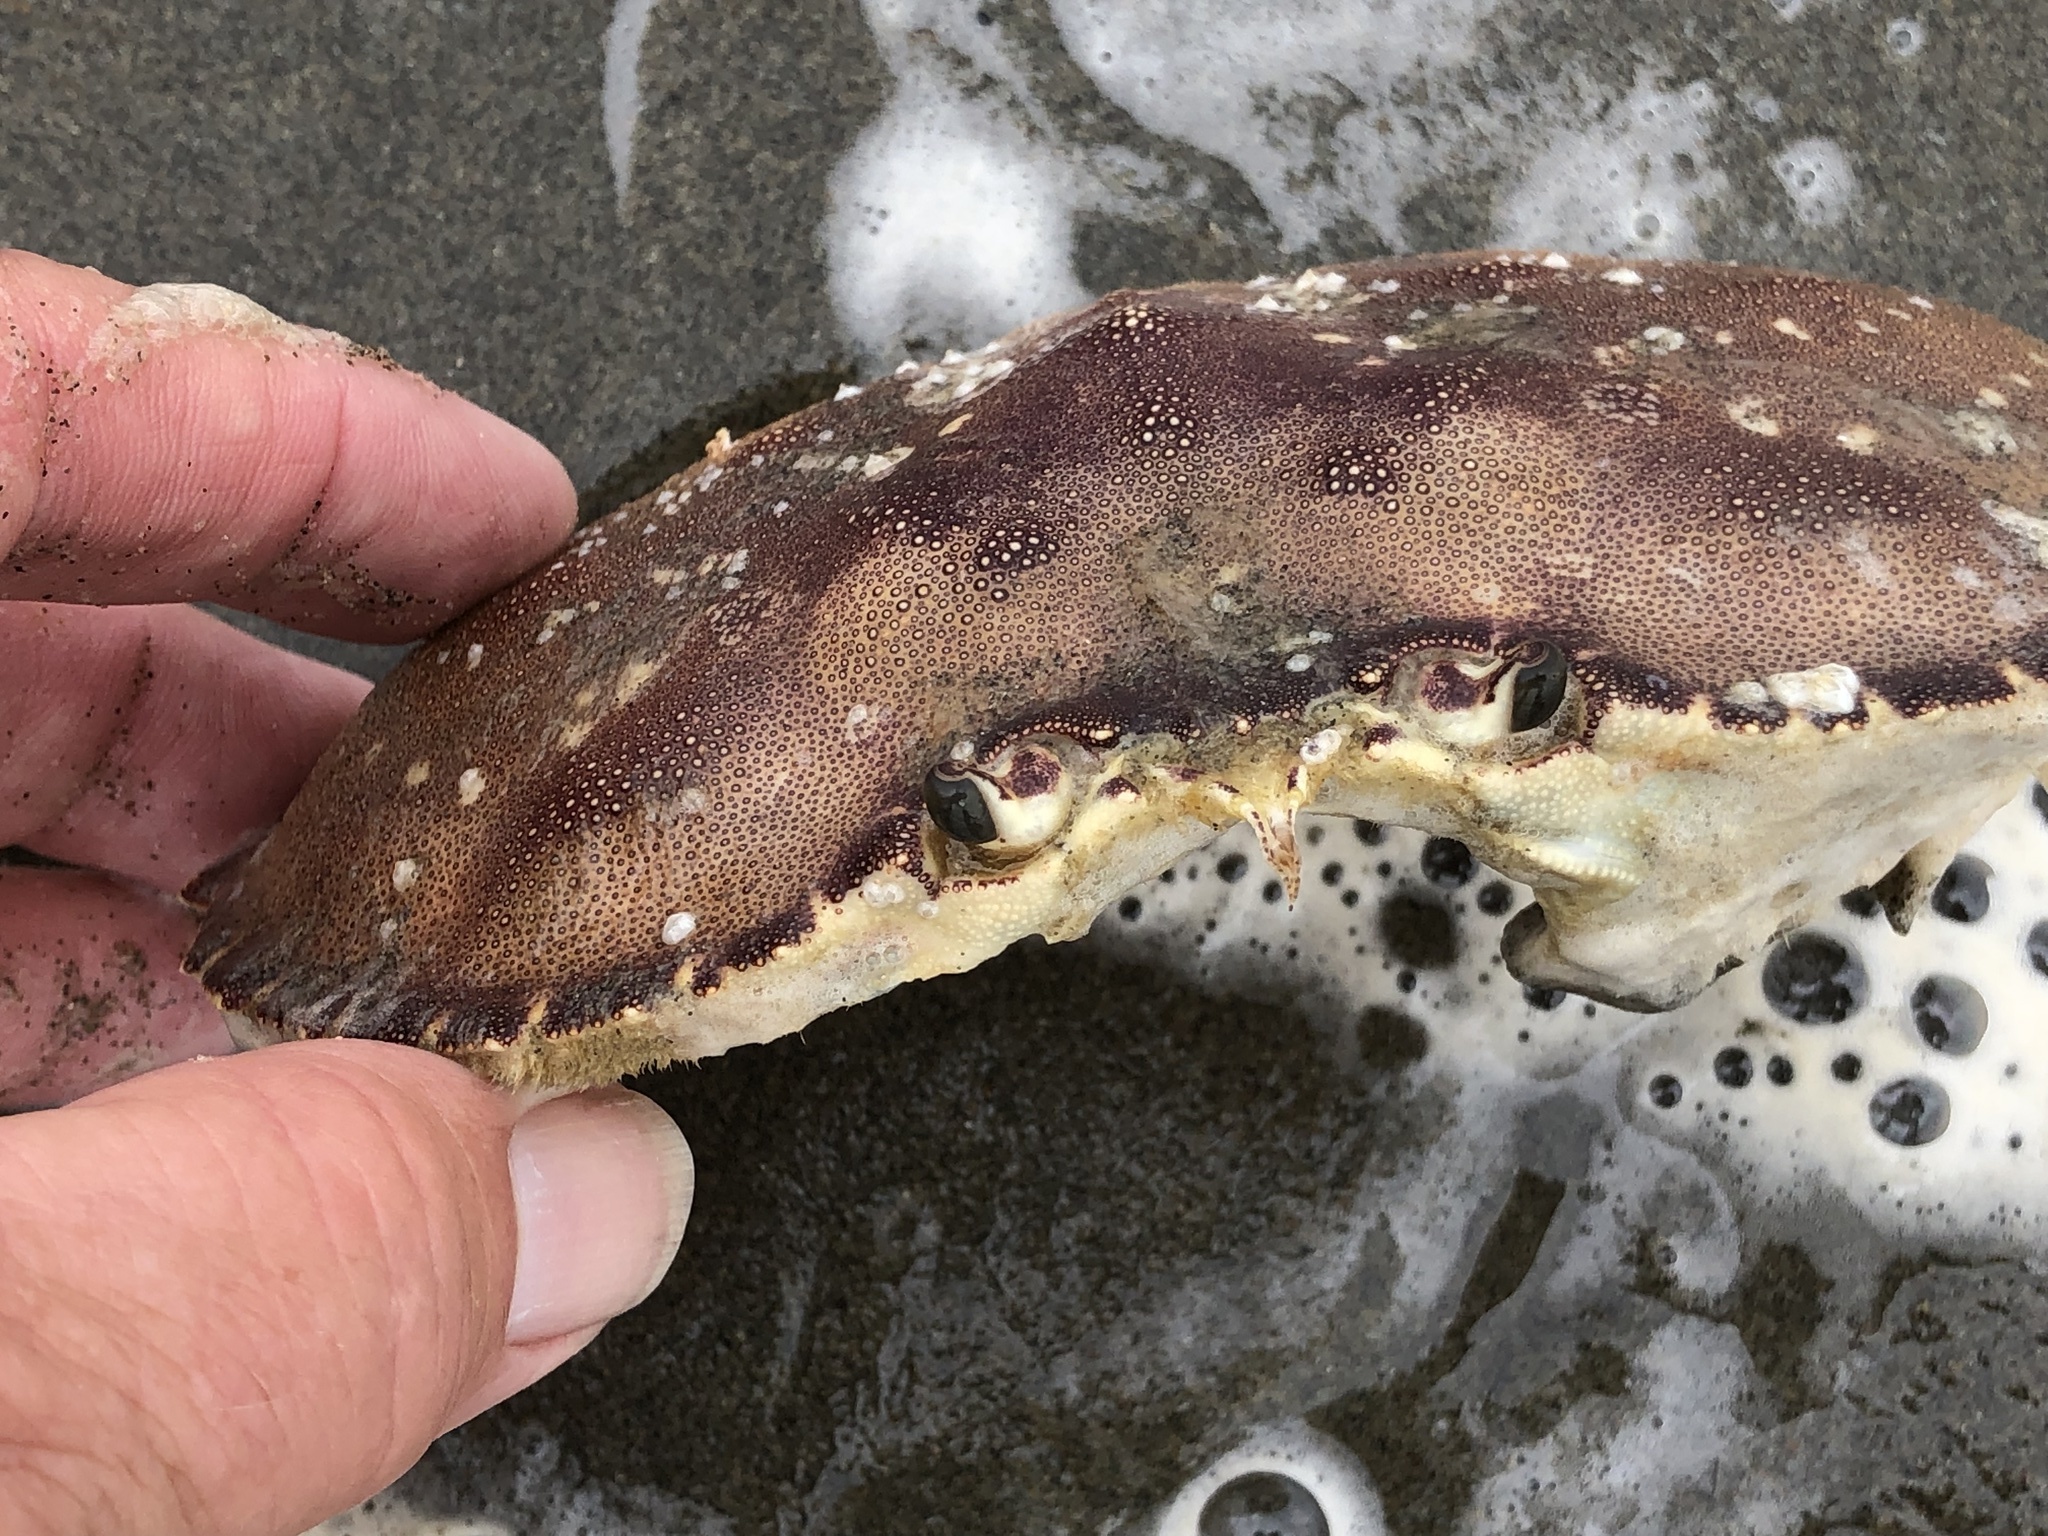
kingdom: Animalia
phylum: Arthropoda
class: Malacostraca
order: Decapoda
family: Cancridae
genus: Metacarcinus
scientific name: Metacarcinus magister
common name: Californian crab
